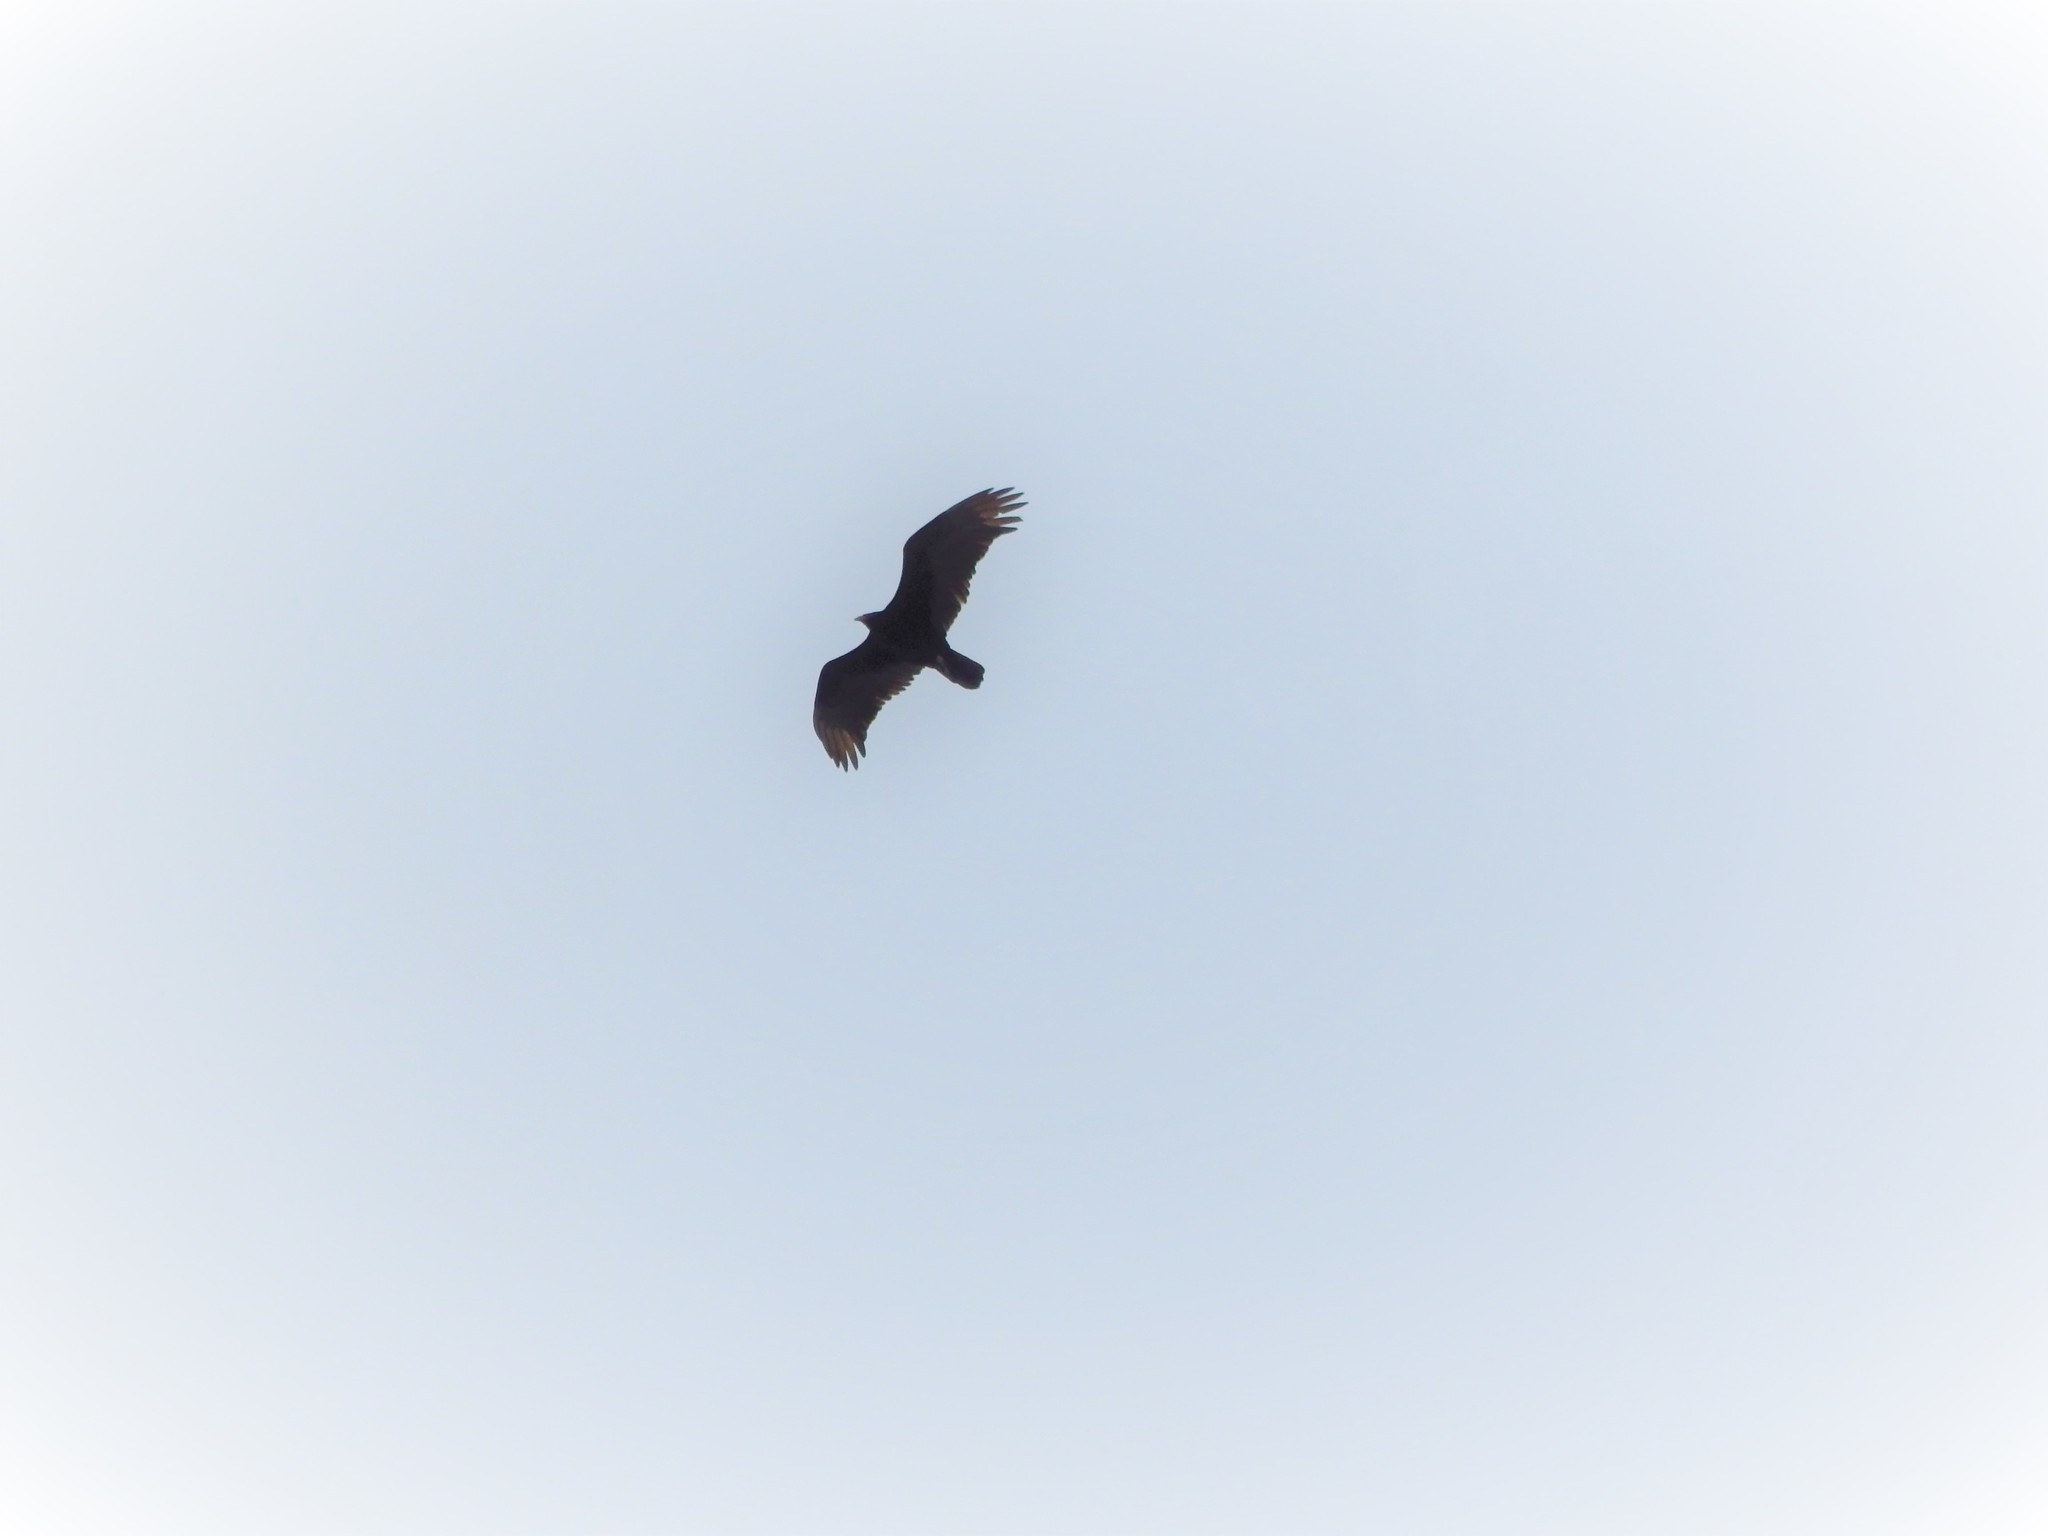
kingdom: Animalia
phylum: Chordata
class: Aves
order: Accipitriformes
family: Cathartidae
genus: Cathartes
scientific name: Cathartes aura
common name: Turkey vulture
